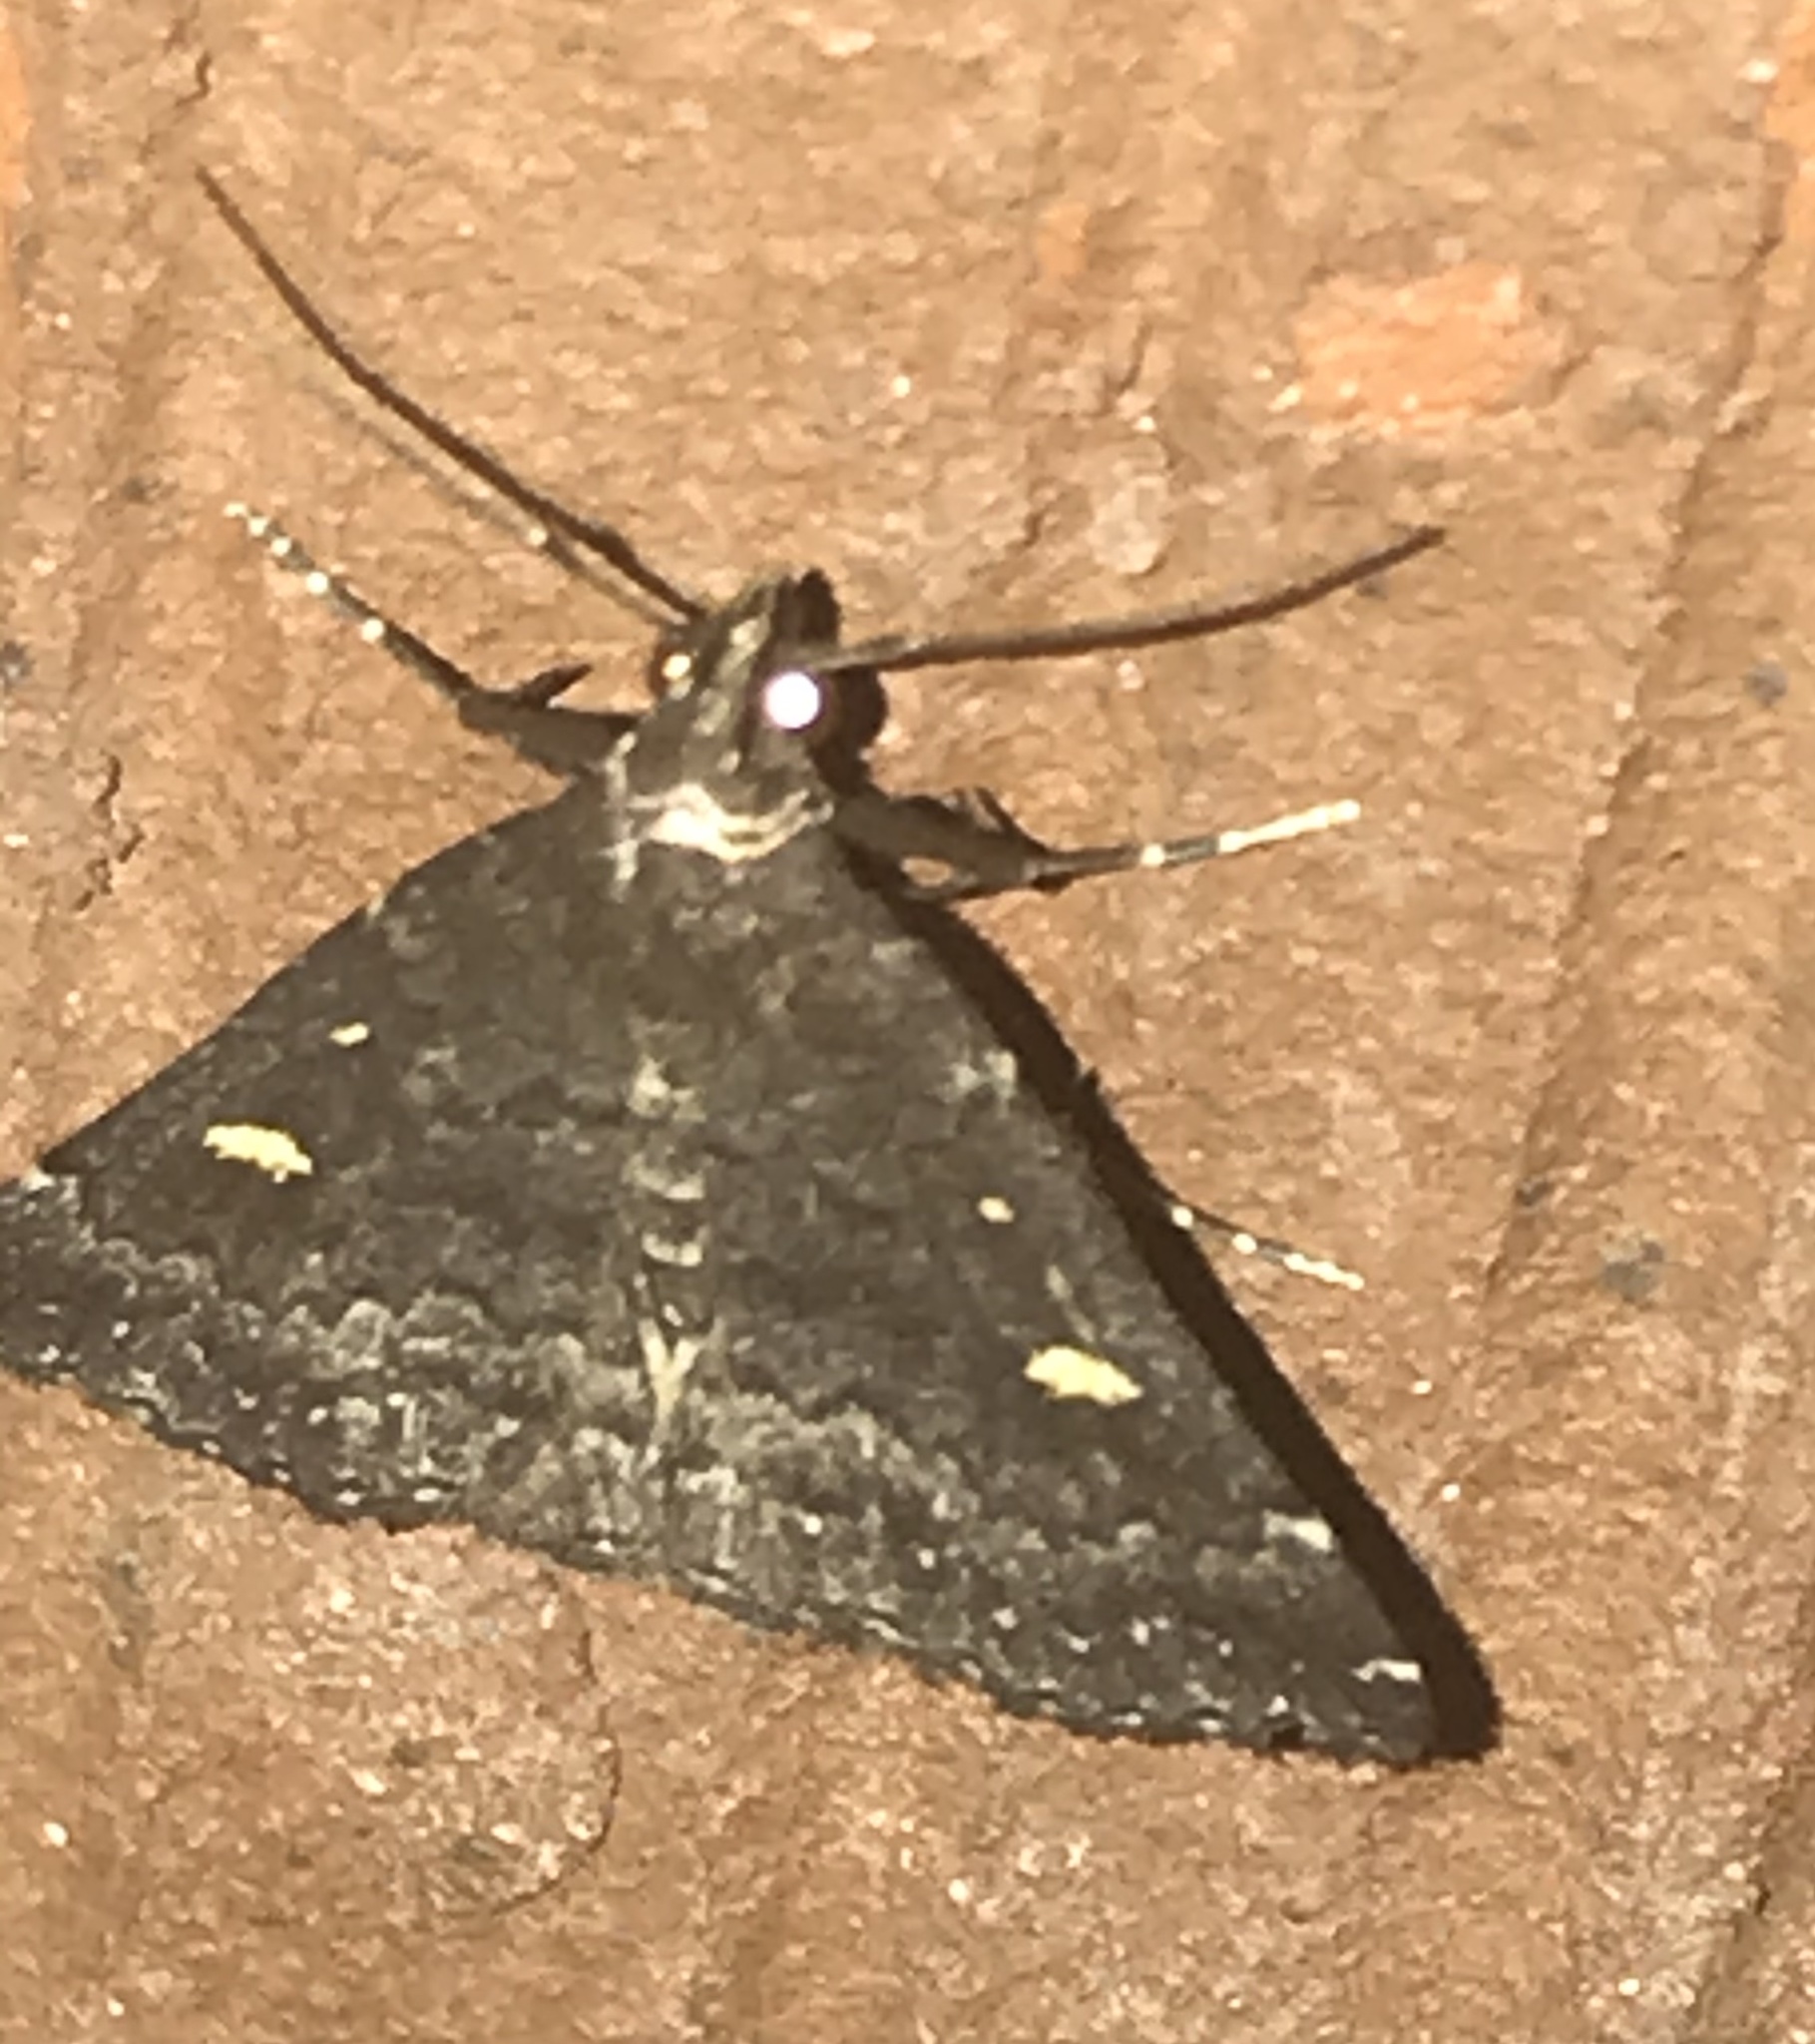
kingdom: Animalia
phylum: Arthropoda
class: Insecta
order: Lepidoptera
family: Erebidae
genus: Tetanolita
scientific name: Tetanolita mynesalis
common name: Smoky tetanolita moth
